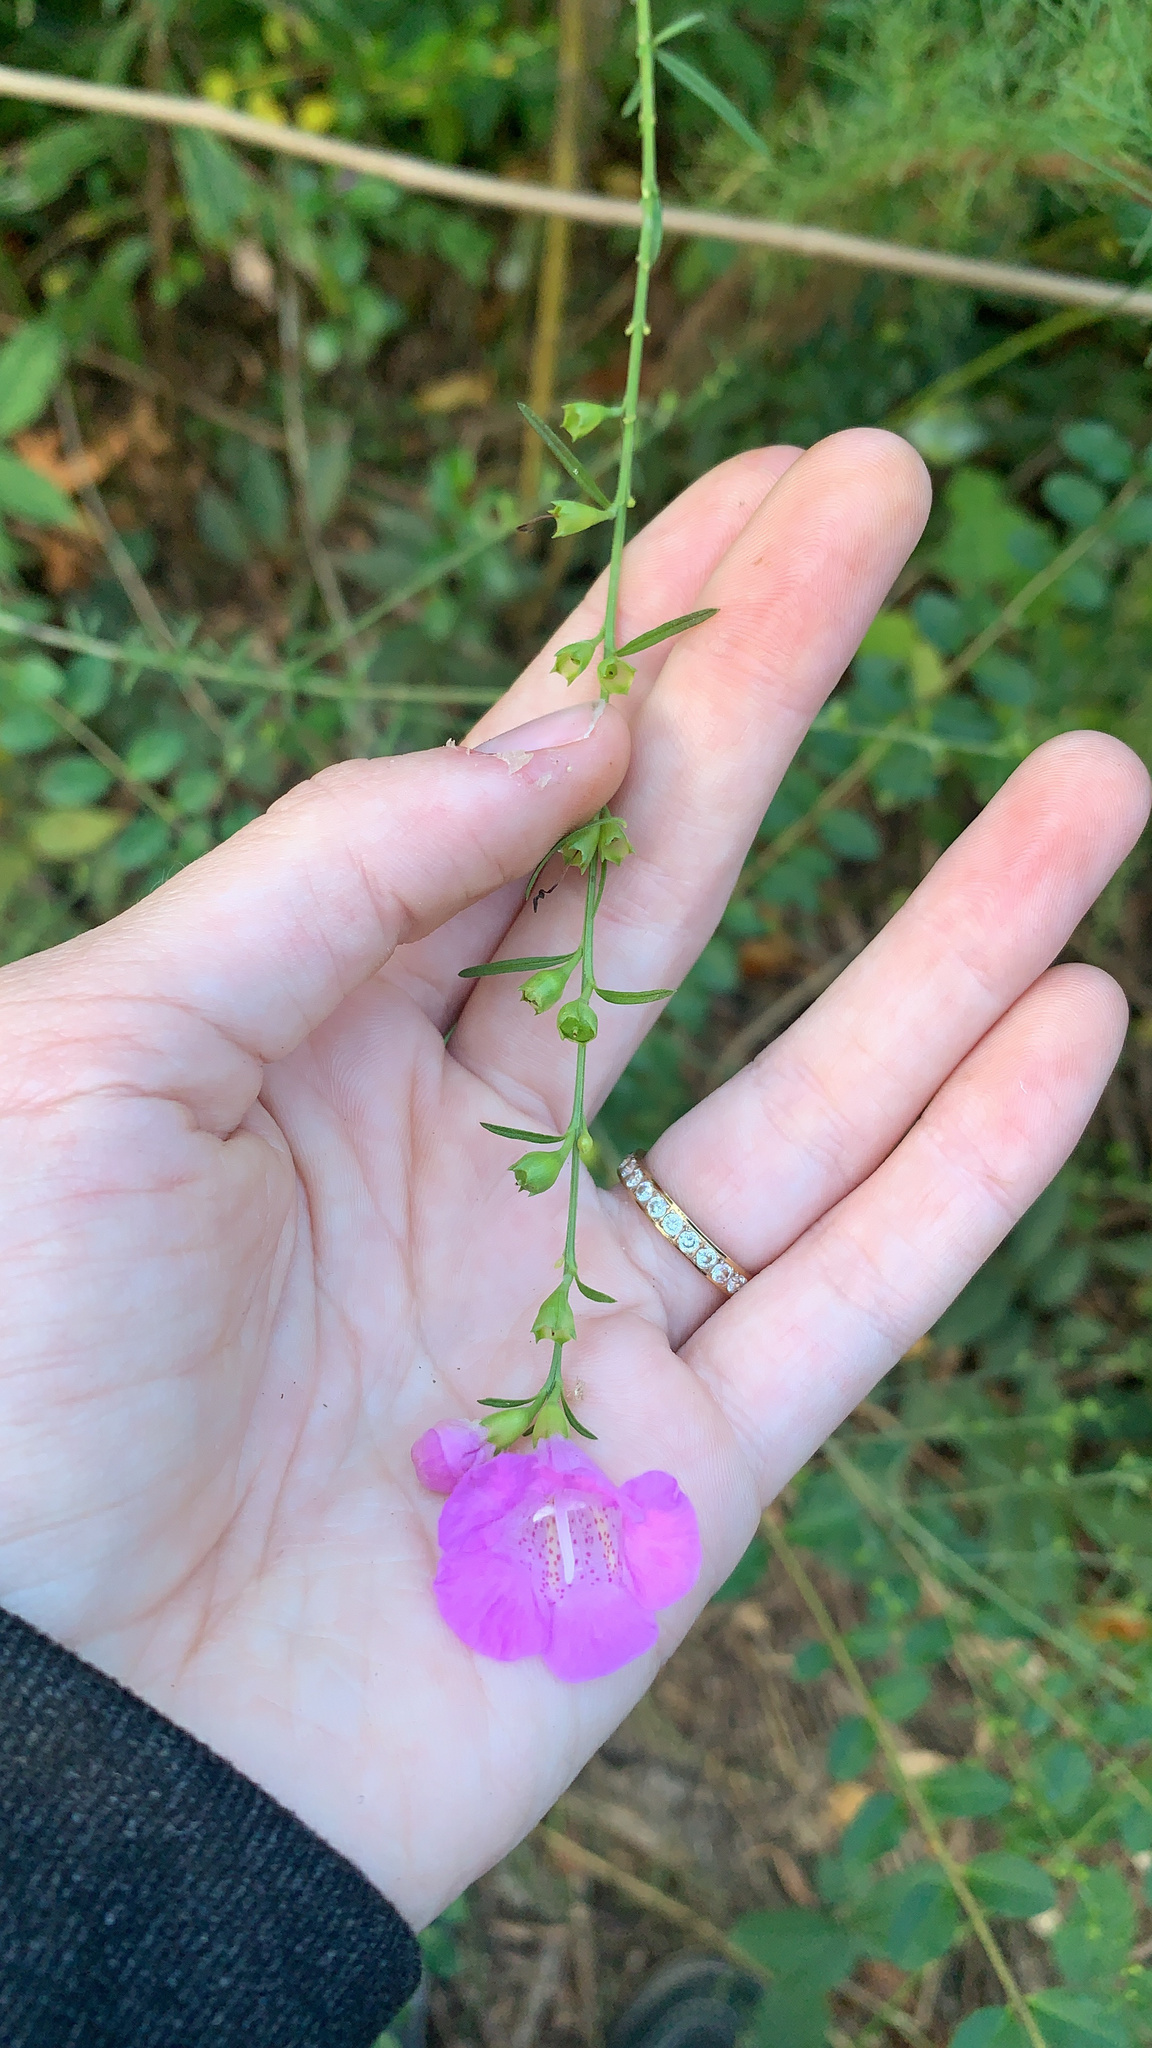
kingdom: Plantae
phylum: Tracheophyta
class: Magnoliopsida
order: Lamiales
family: Orobanchaceae
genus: Agalinis
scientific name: Agalinis purpurea
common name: Purple false foxglove
